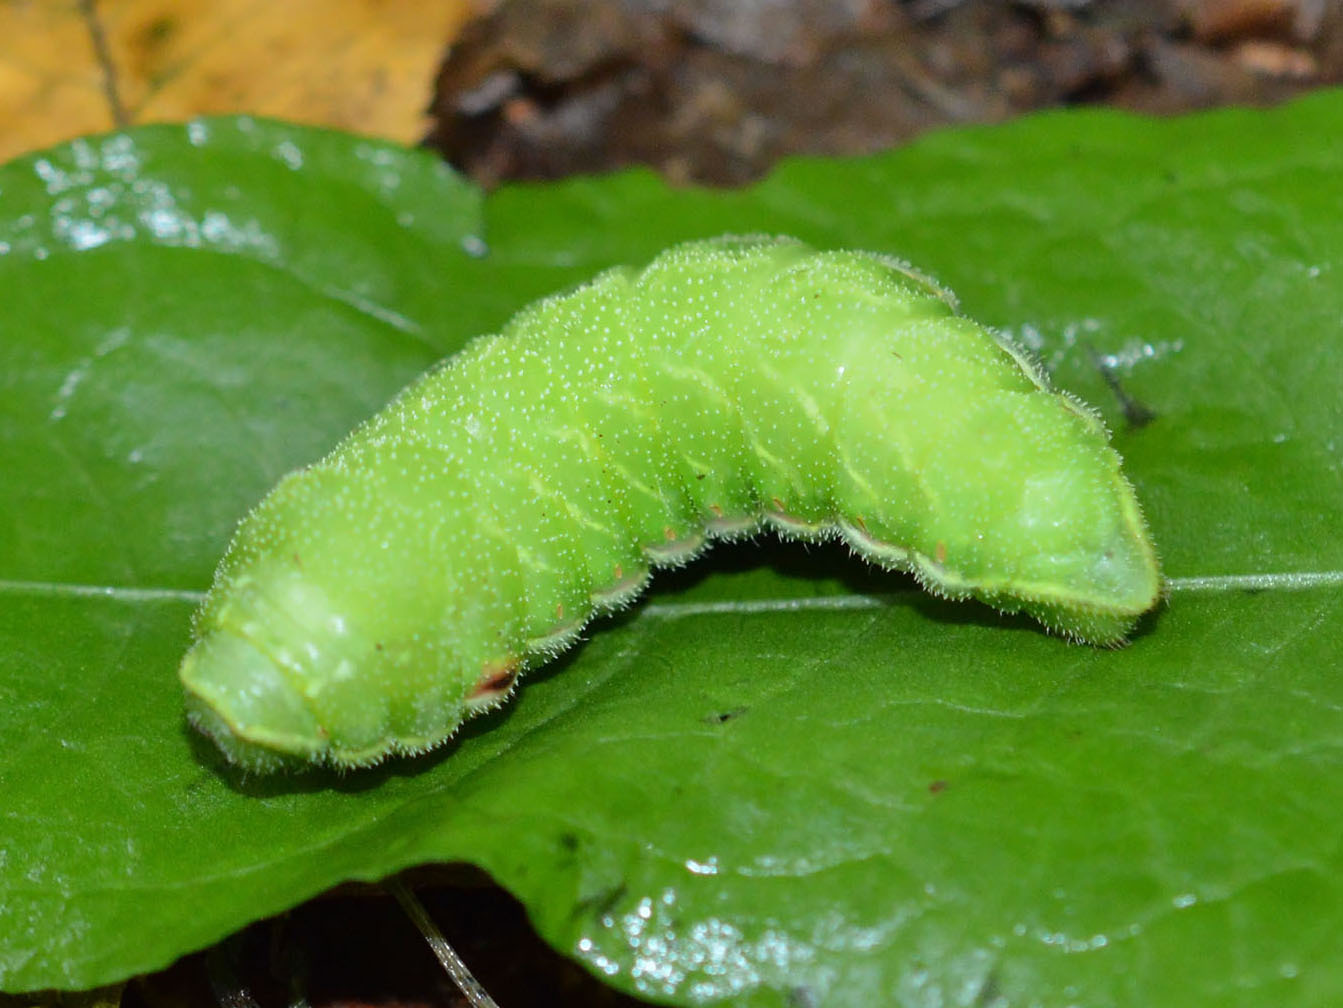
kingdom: Animalia
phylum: Arthropoda
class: Insecta
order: Lepidoptera
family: Saturniidae
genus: Aglia
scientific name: Aglia tau
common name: Tau emperor
